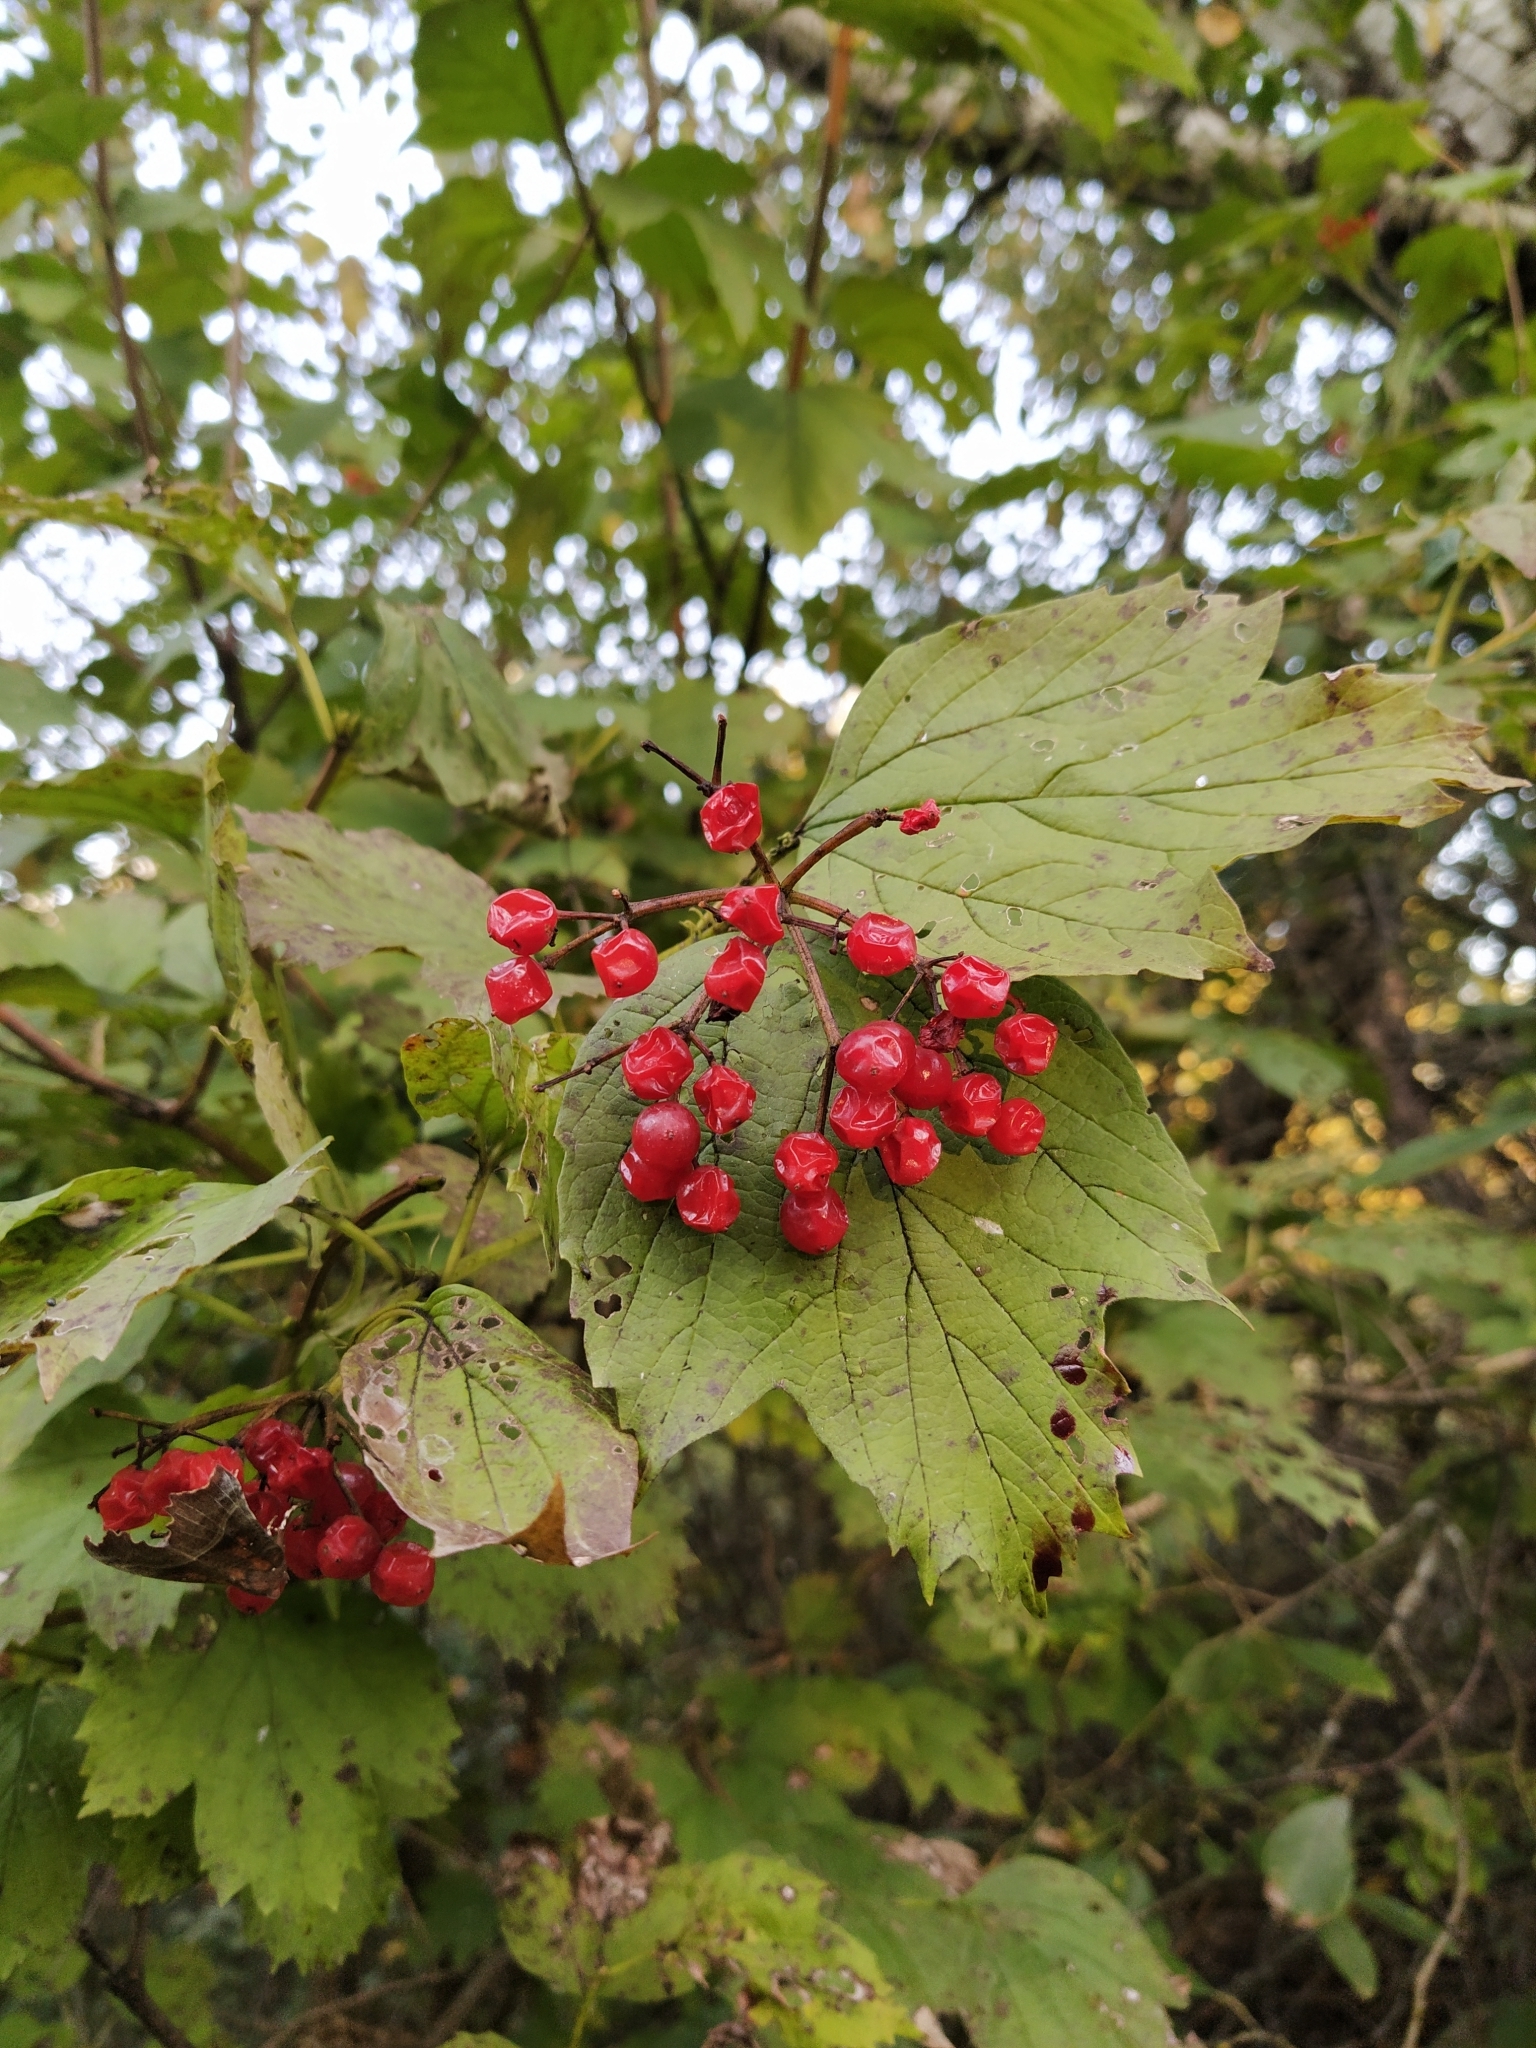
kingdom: Plantae
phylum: Tracheophyta
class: Magnoliopsida
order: Dipsacales
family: Viburnaceae
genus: Viburnum
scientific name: Viburnum opulus
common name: Guelder-rose
